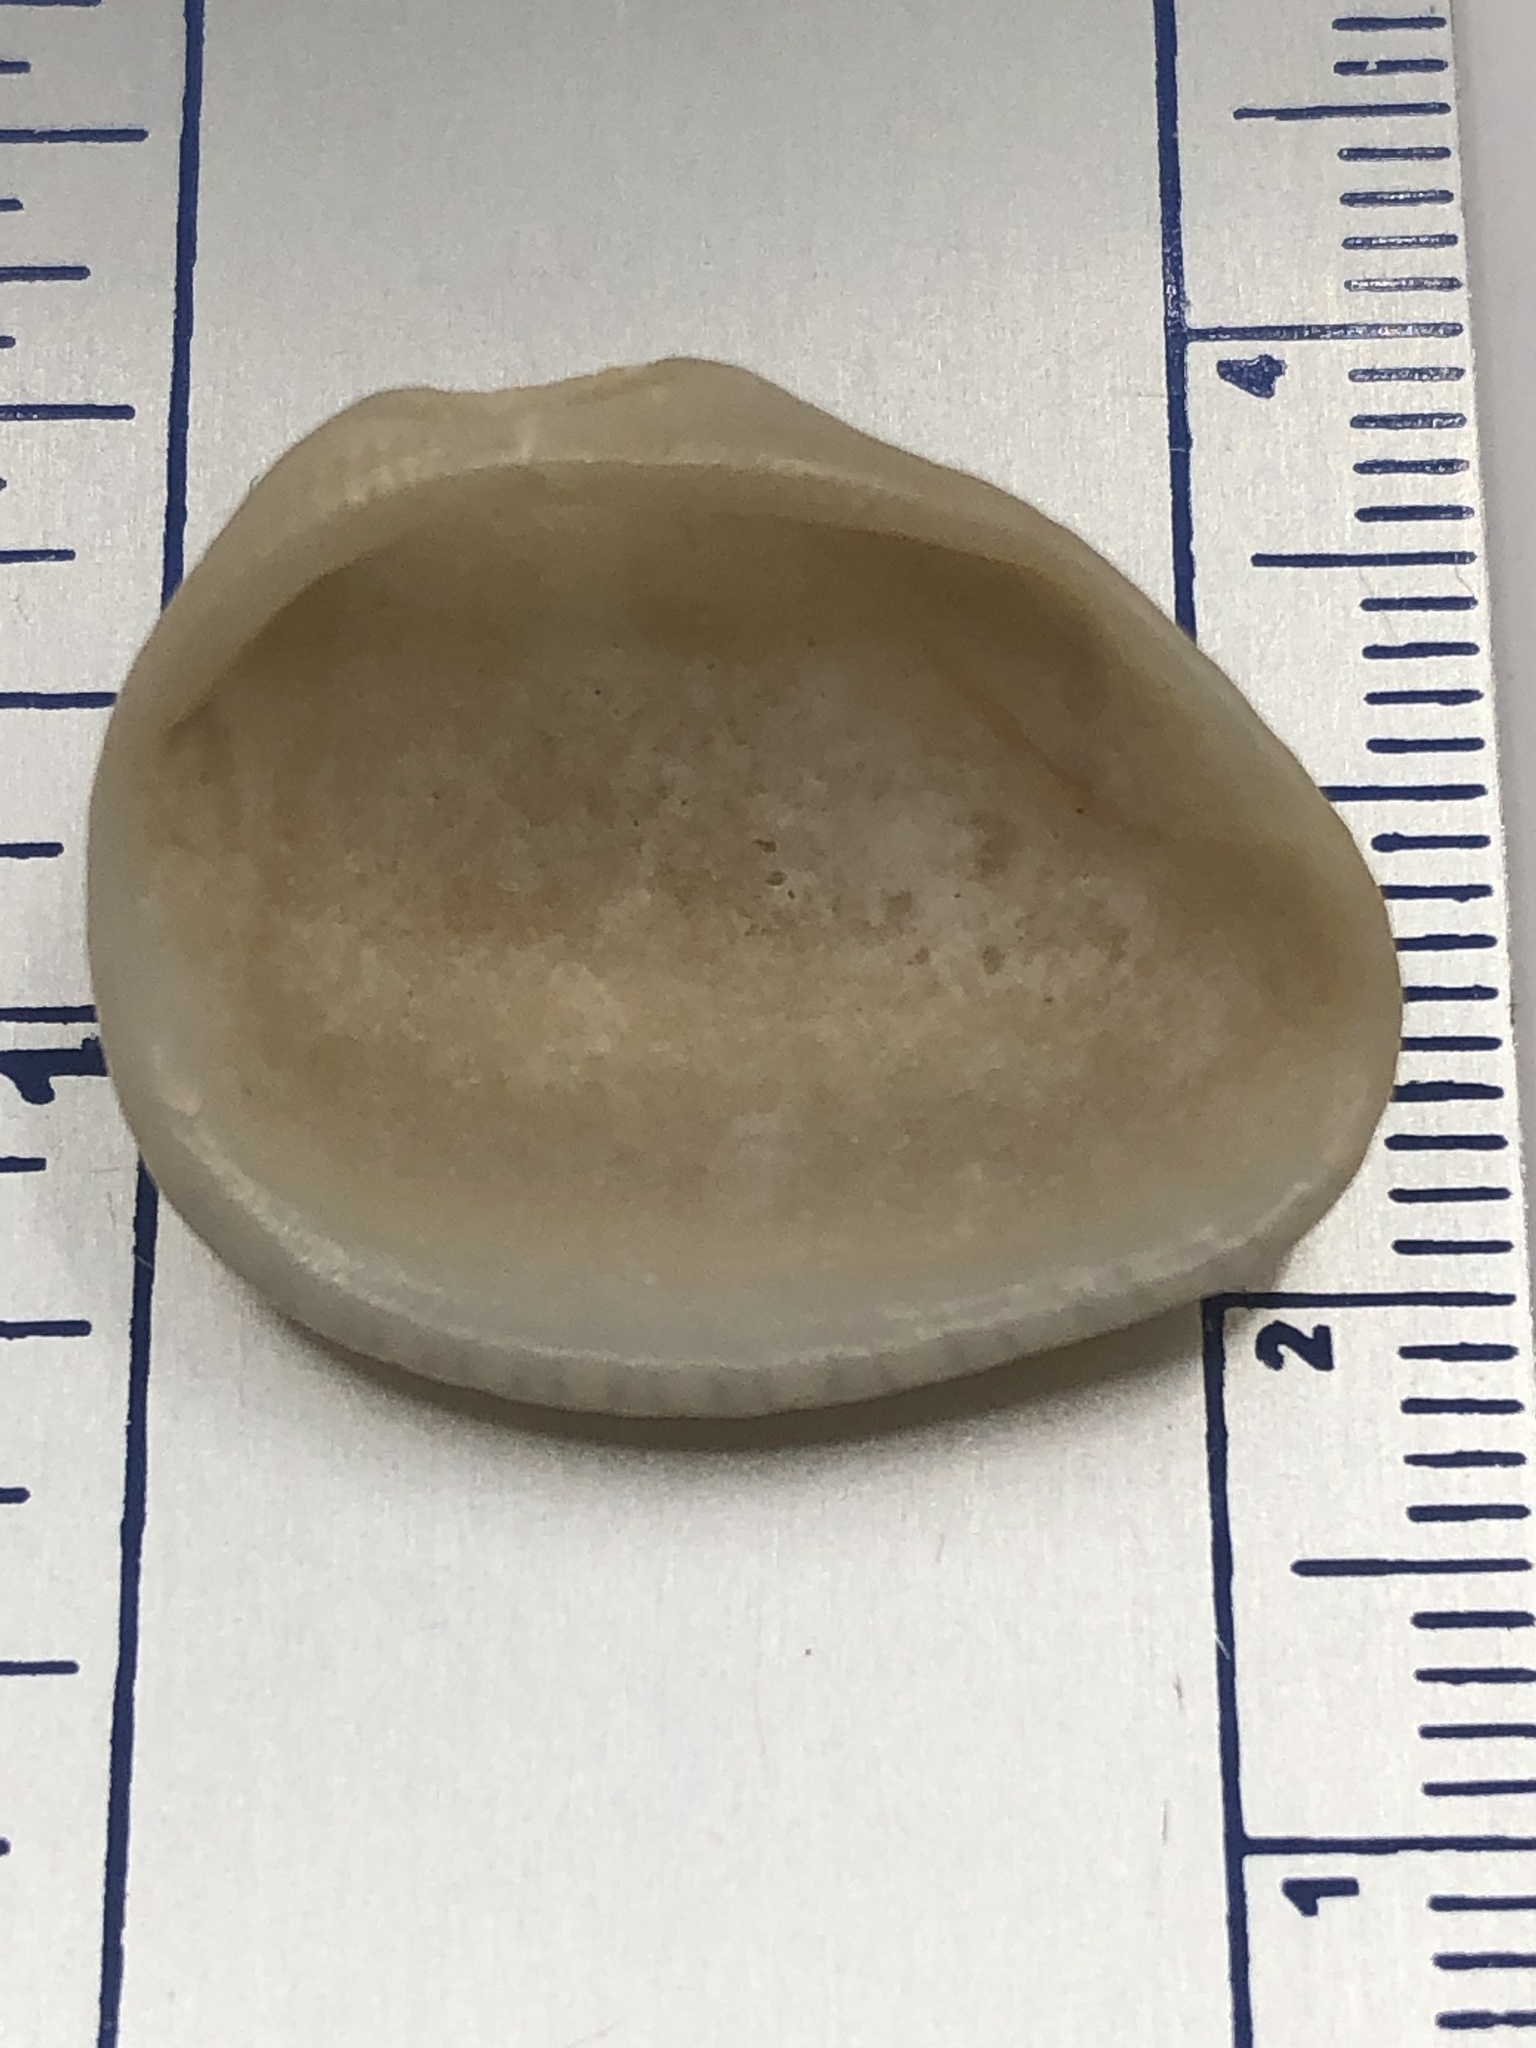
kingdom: Animalia
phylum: Mollusca
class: Bivalvia
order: Arcida
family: Noetiidae
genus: Noetia
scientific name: Noetia ponderosa
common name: Ponderous ark
